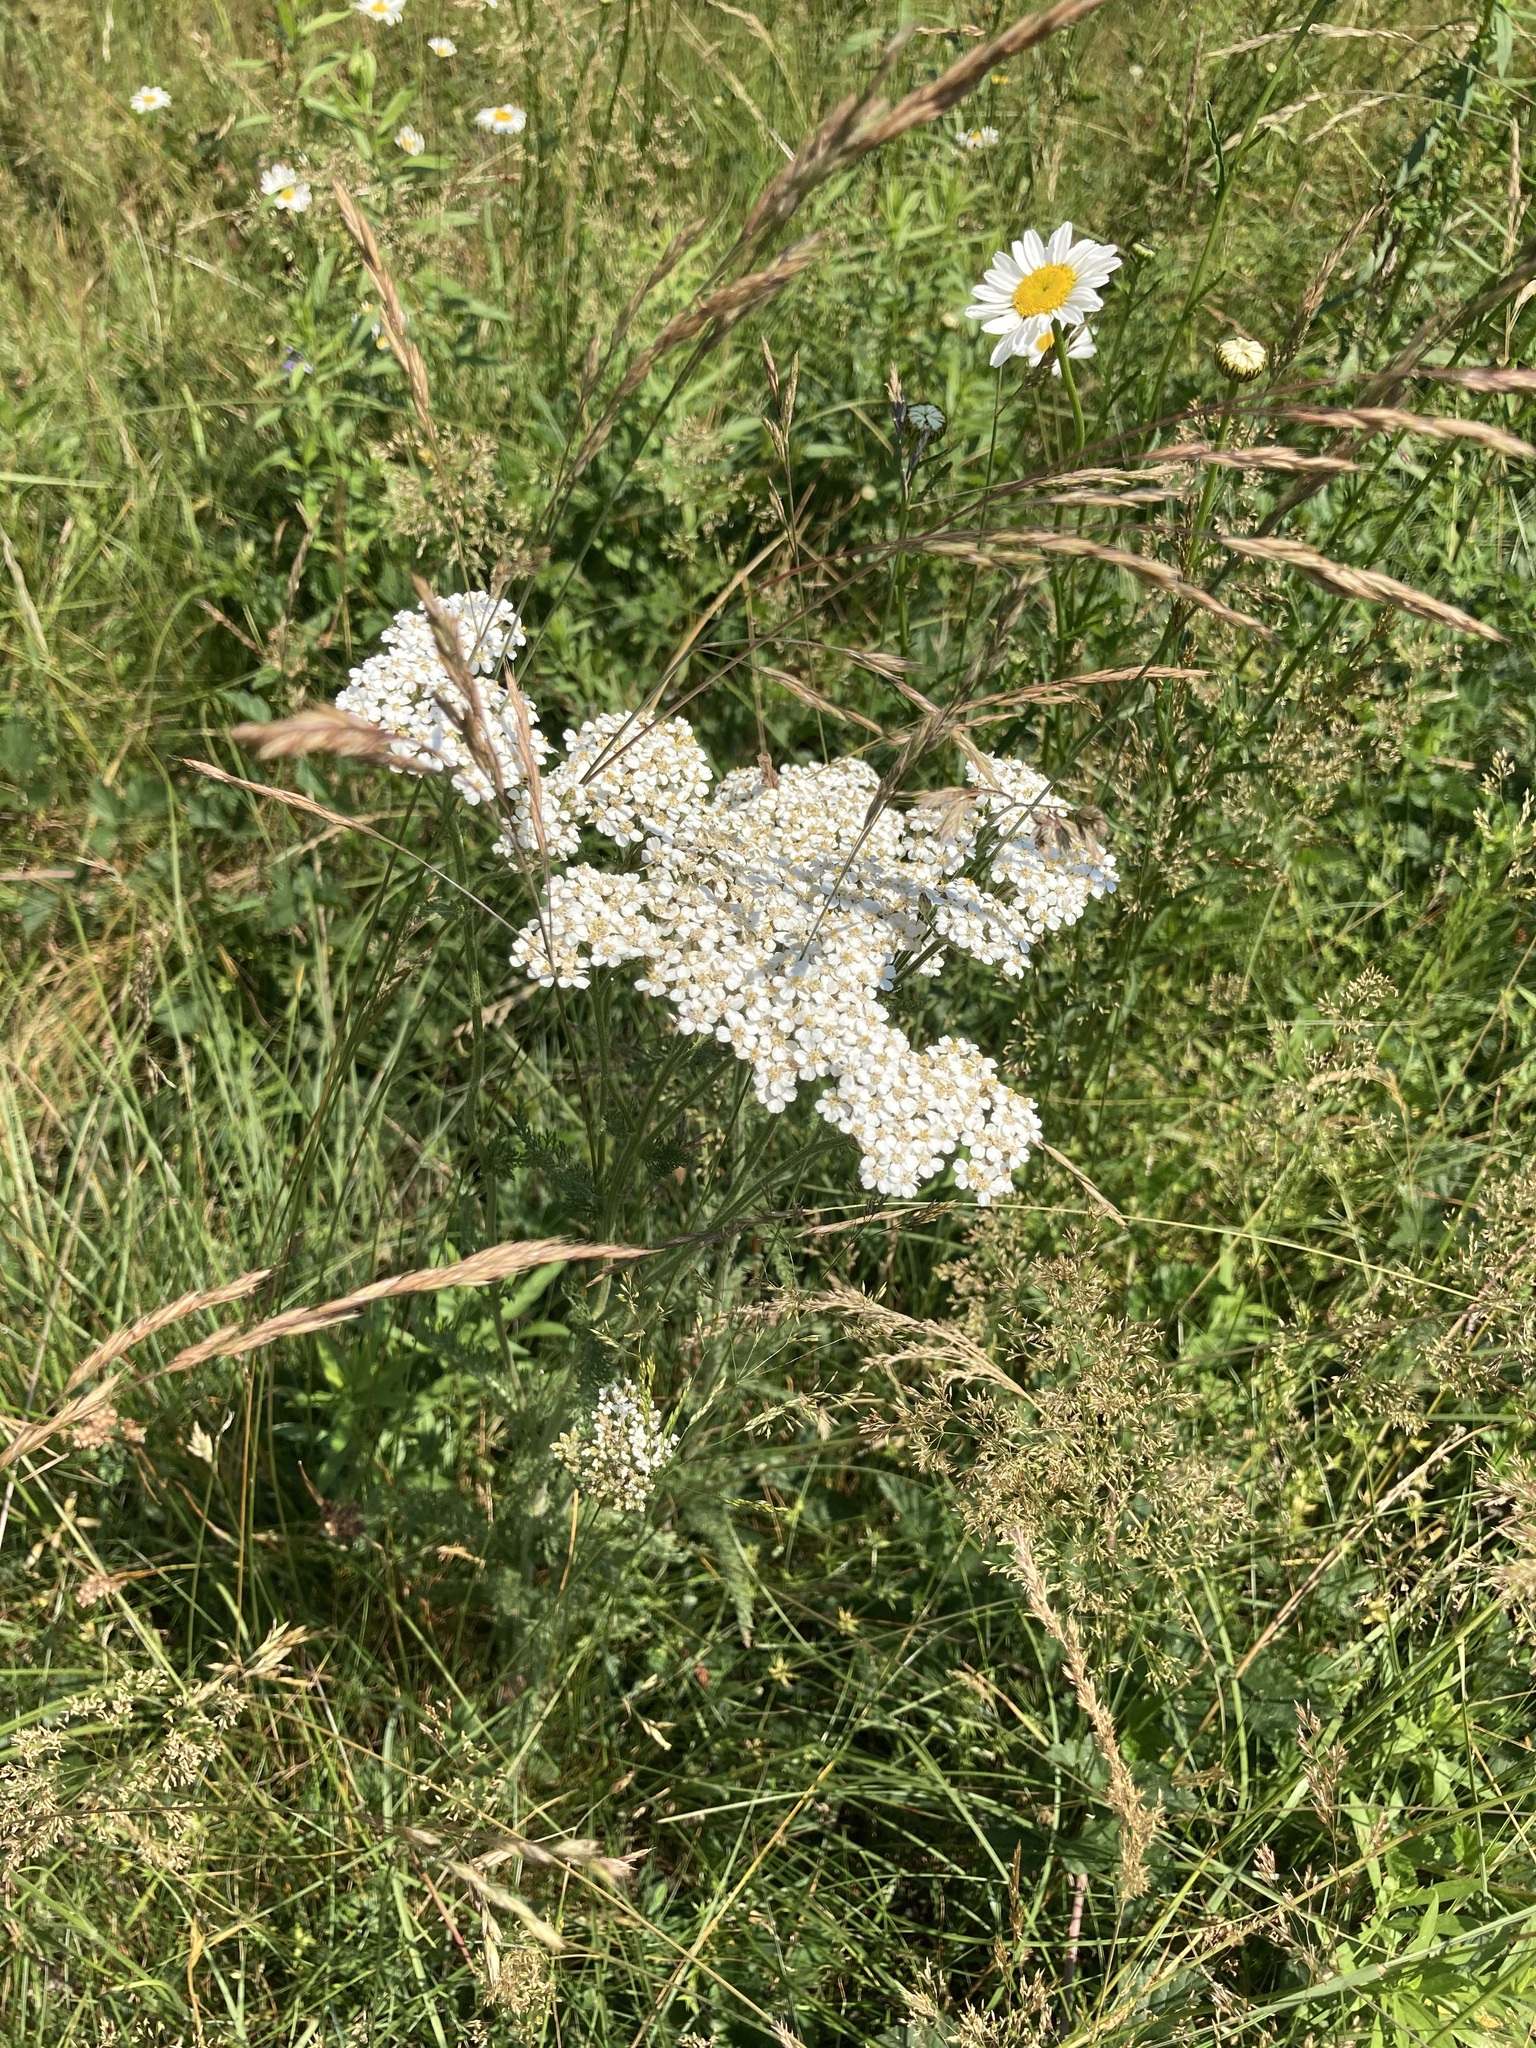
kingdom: Plantae
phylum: Tracheophyta
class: Magnoliopsida
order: Asterales
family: Asteraceae
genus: Achillea
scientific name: Achillea millefolium
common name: Yarrow
